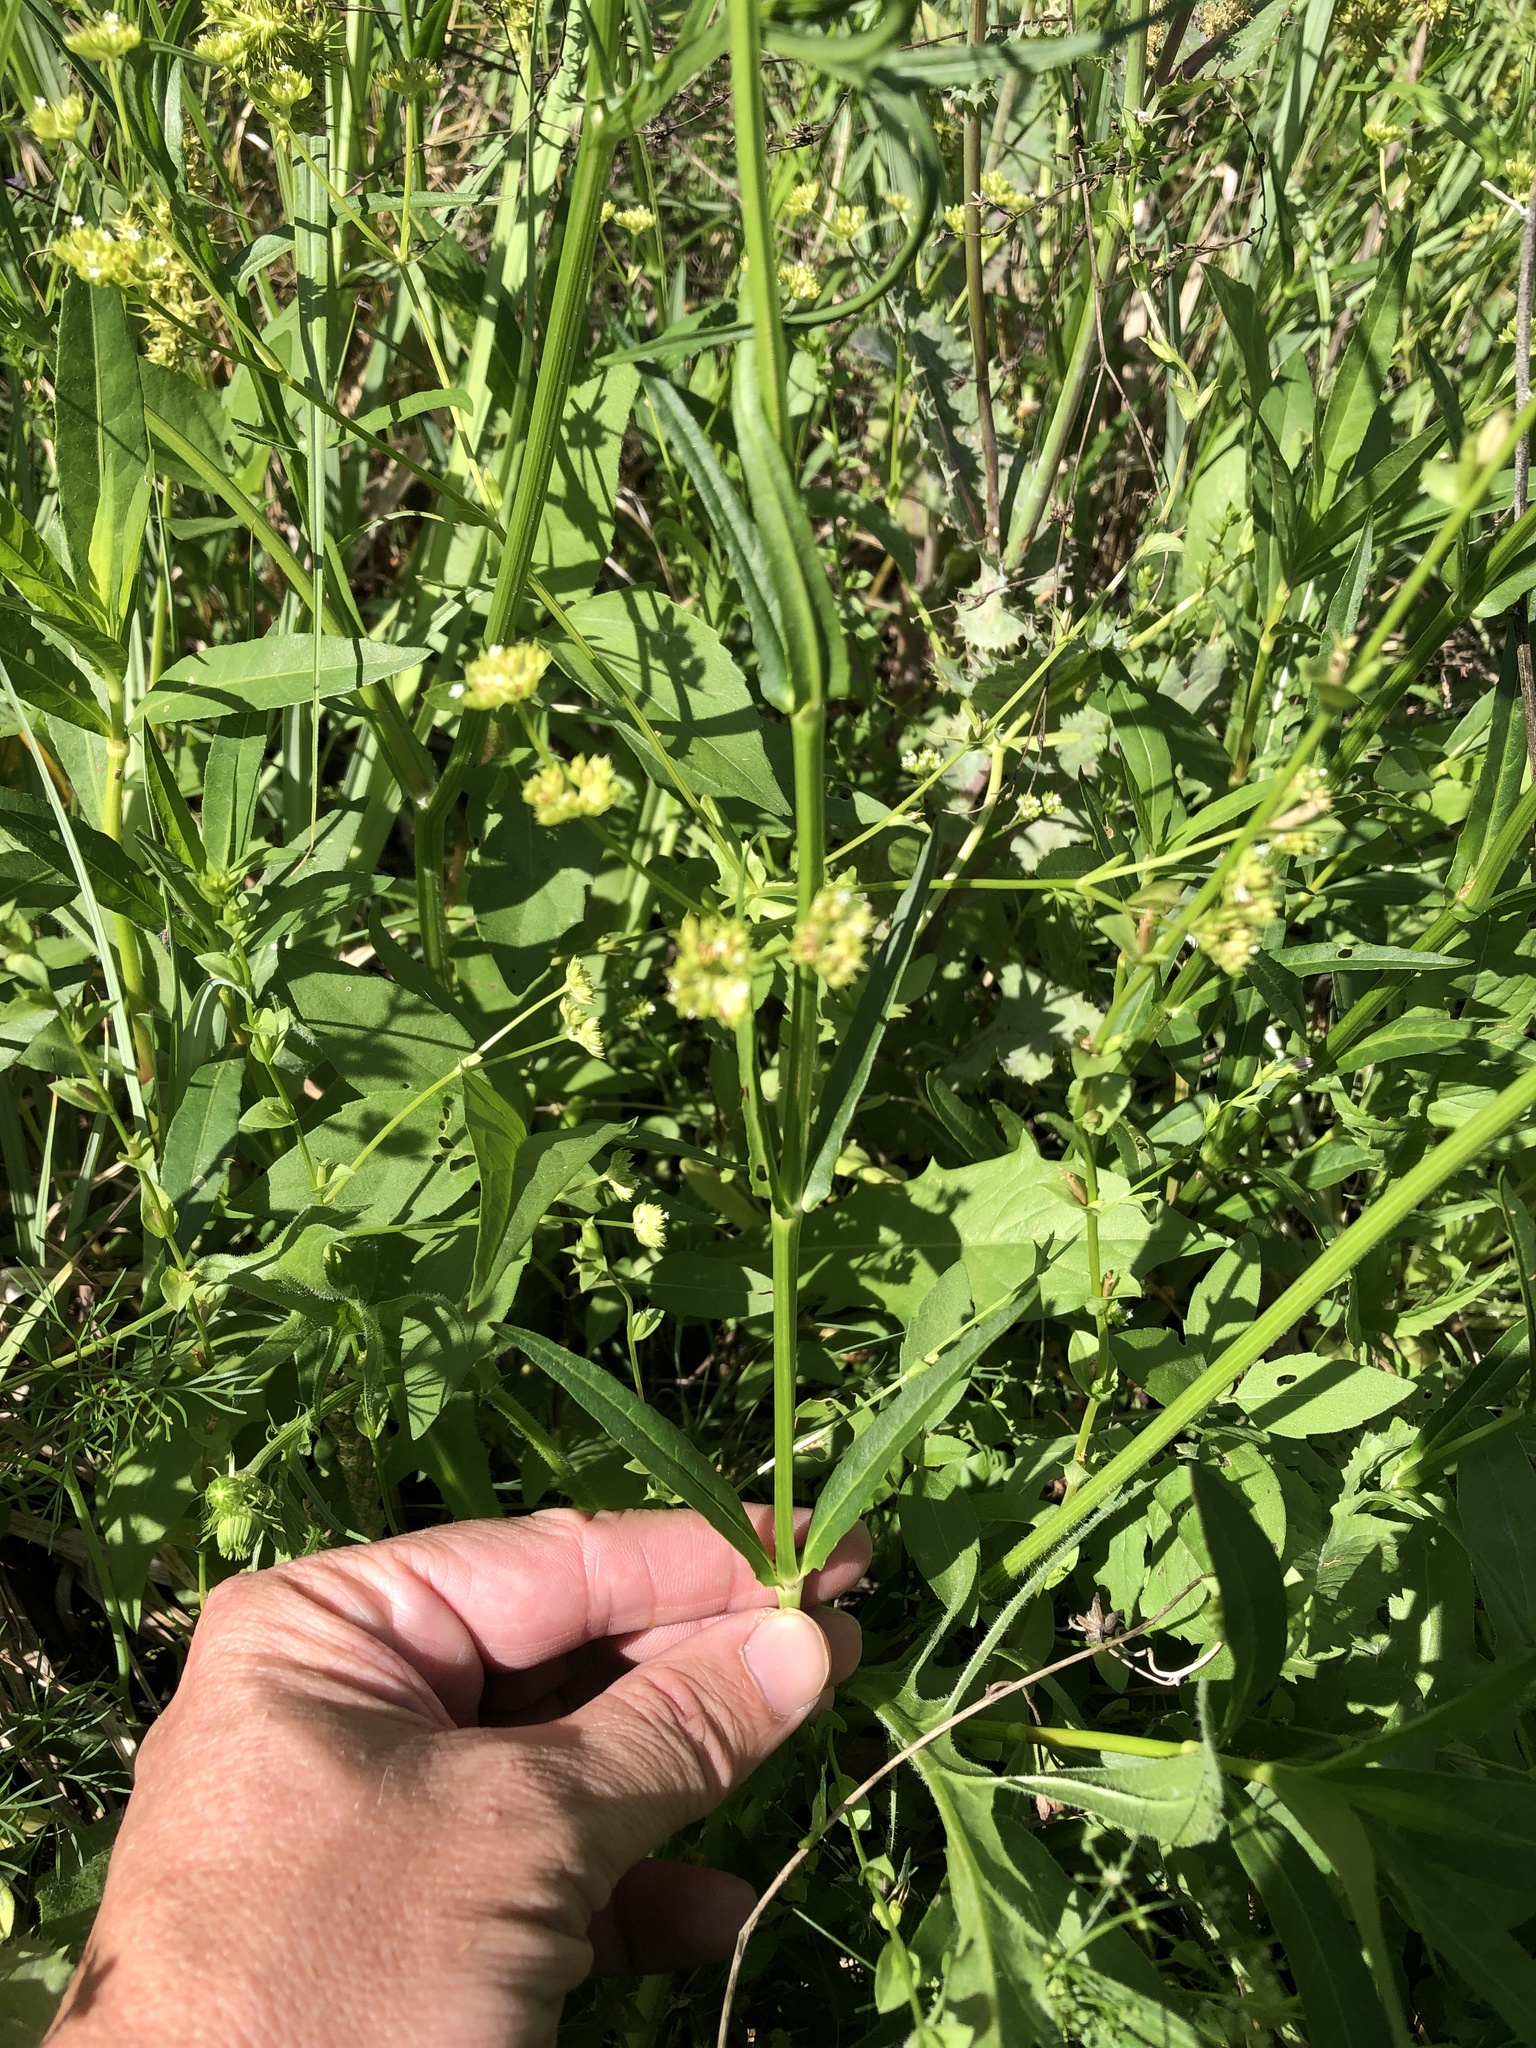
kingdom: Plantae
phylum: Tracheophyta
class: Magnoliopsida
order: Lamiales
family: Lamiaceae
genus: Physostegia
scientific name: Physostegia intermedia
